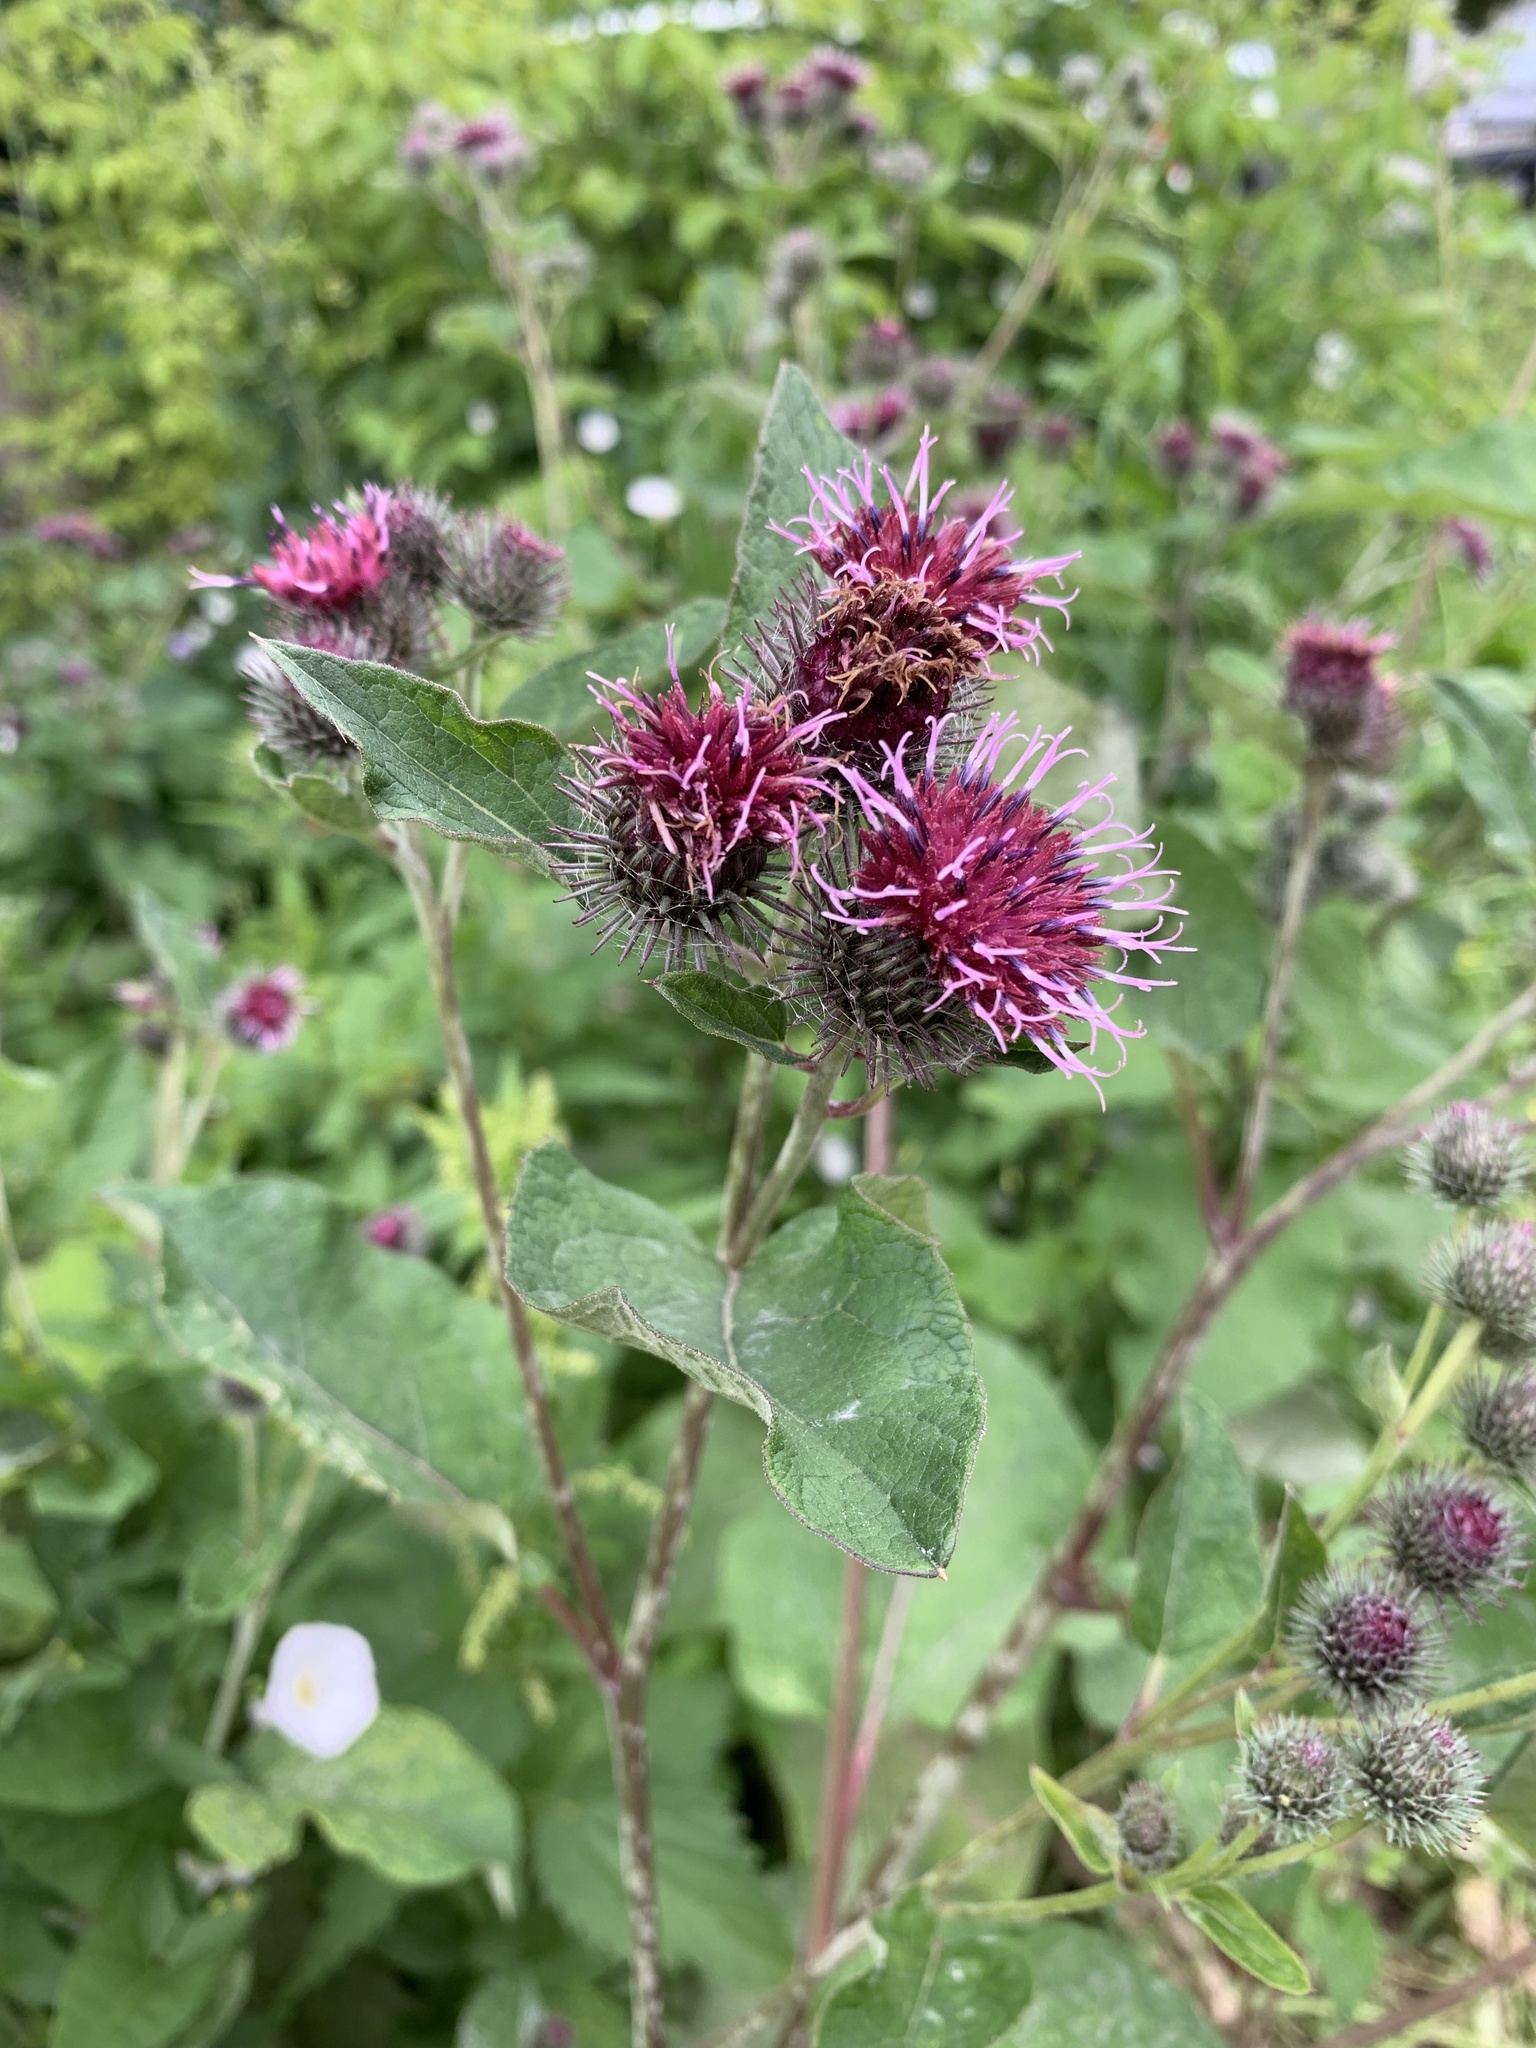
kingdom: Plantae
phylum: Tracheophyta
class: Magnoliopsida
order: Asterales
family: Asteraceae
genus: Arctium
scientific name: Arctium tomentosum
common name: Woolly burdock
